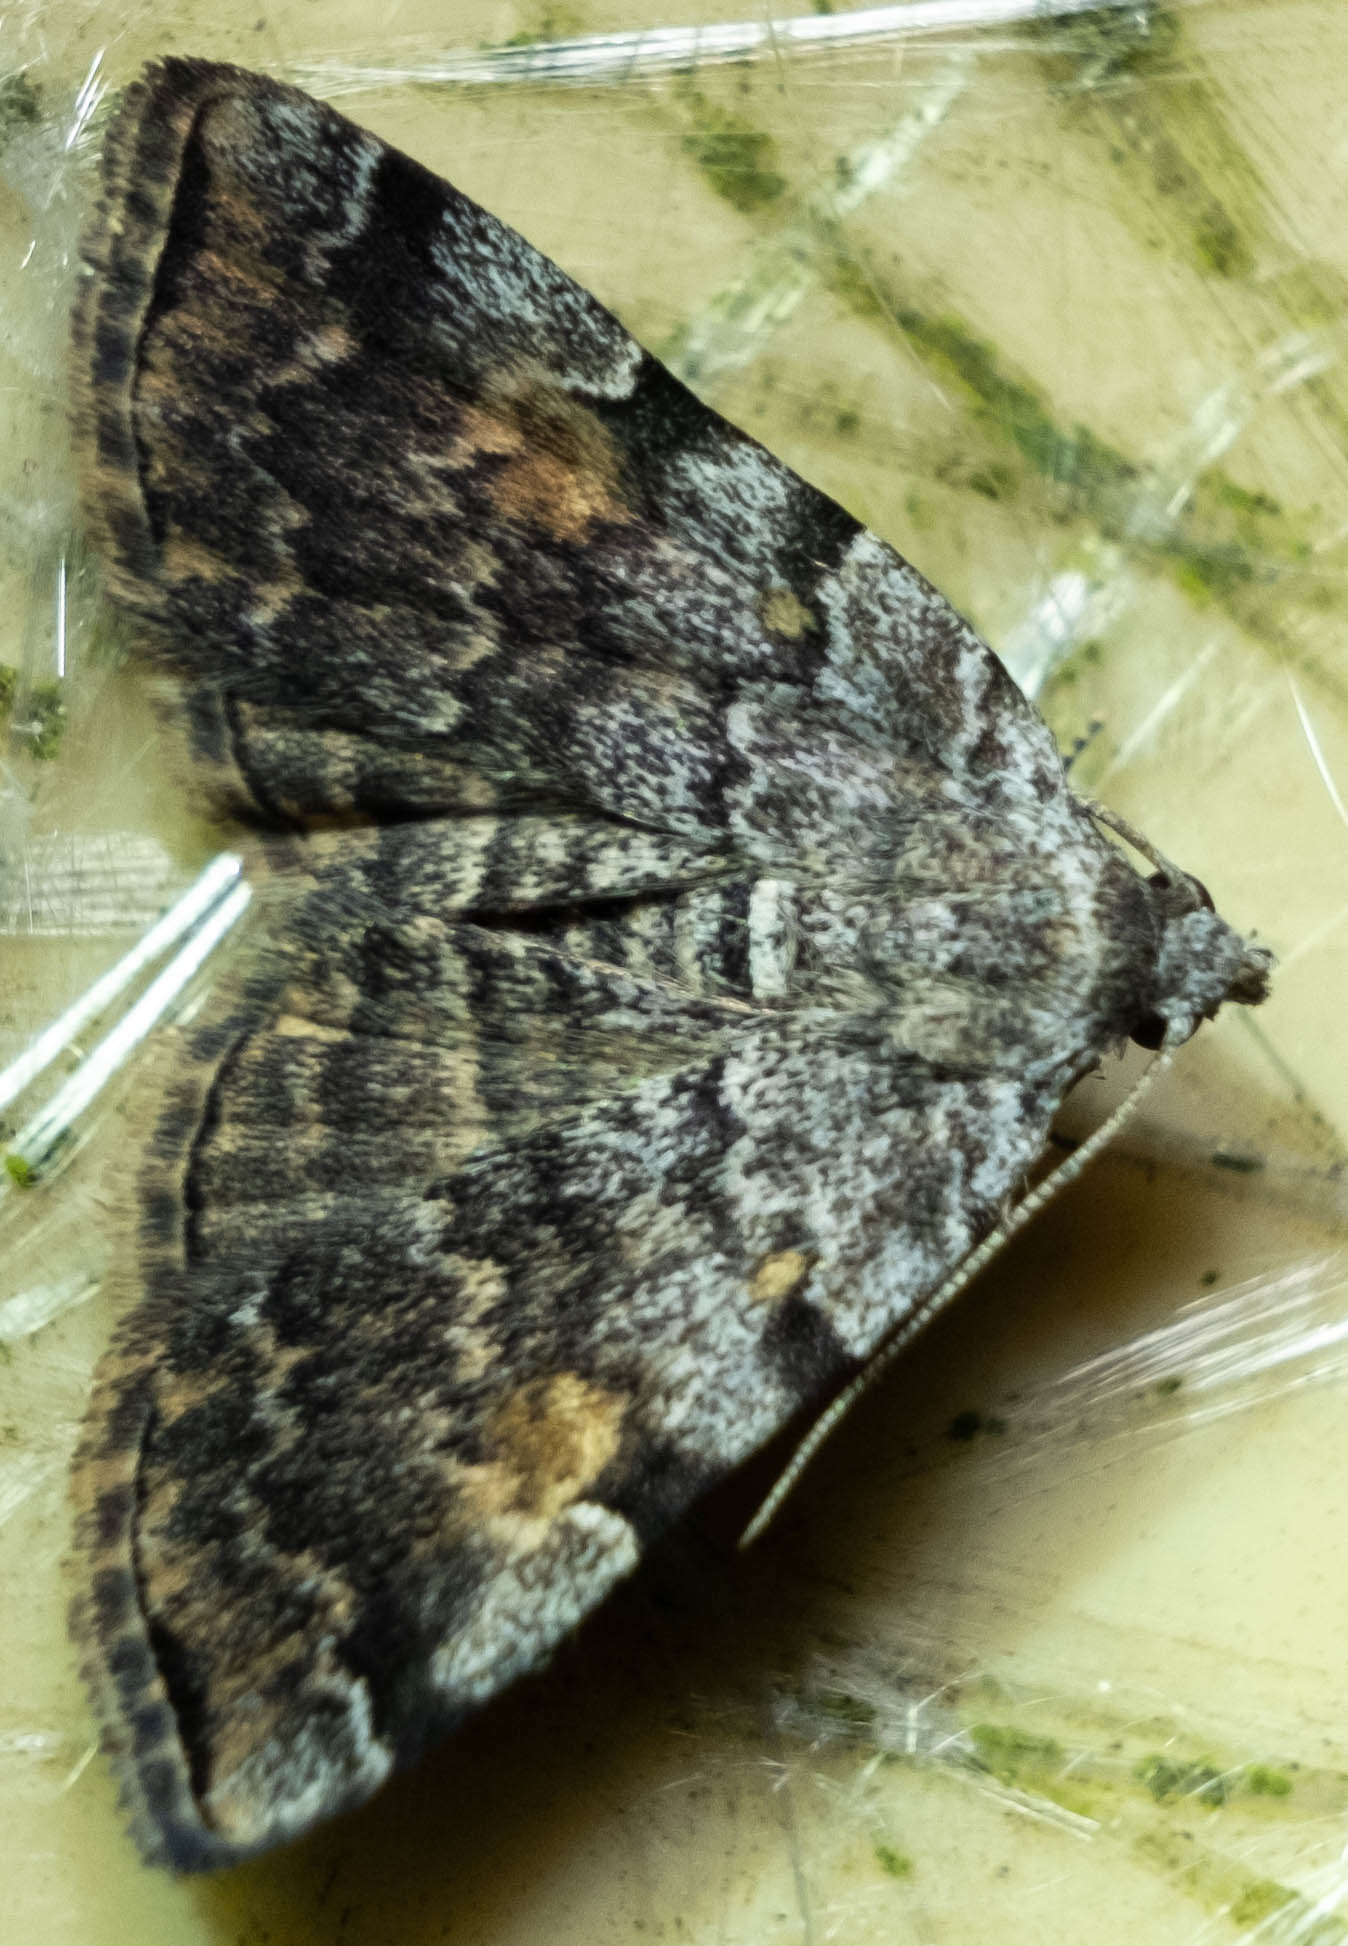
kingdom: Animalia
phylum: Arthropoda
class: Insecta
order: Lepidoptera
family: Erebidae
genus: Idia
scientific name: Idia americalis
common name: American idia moth
